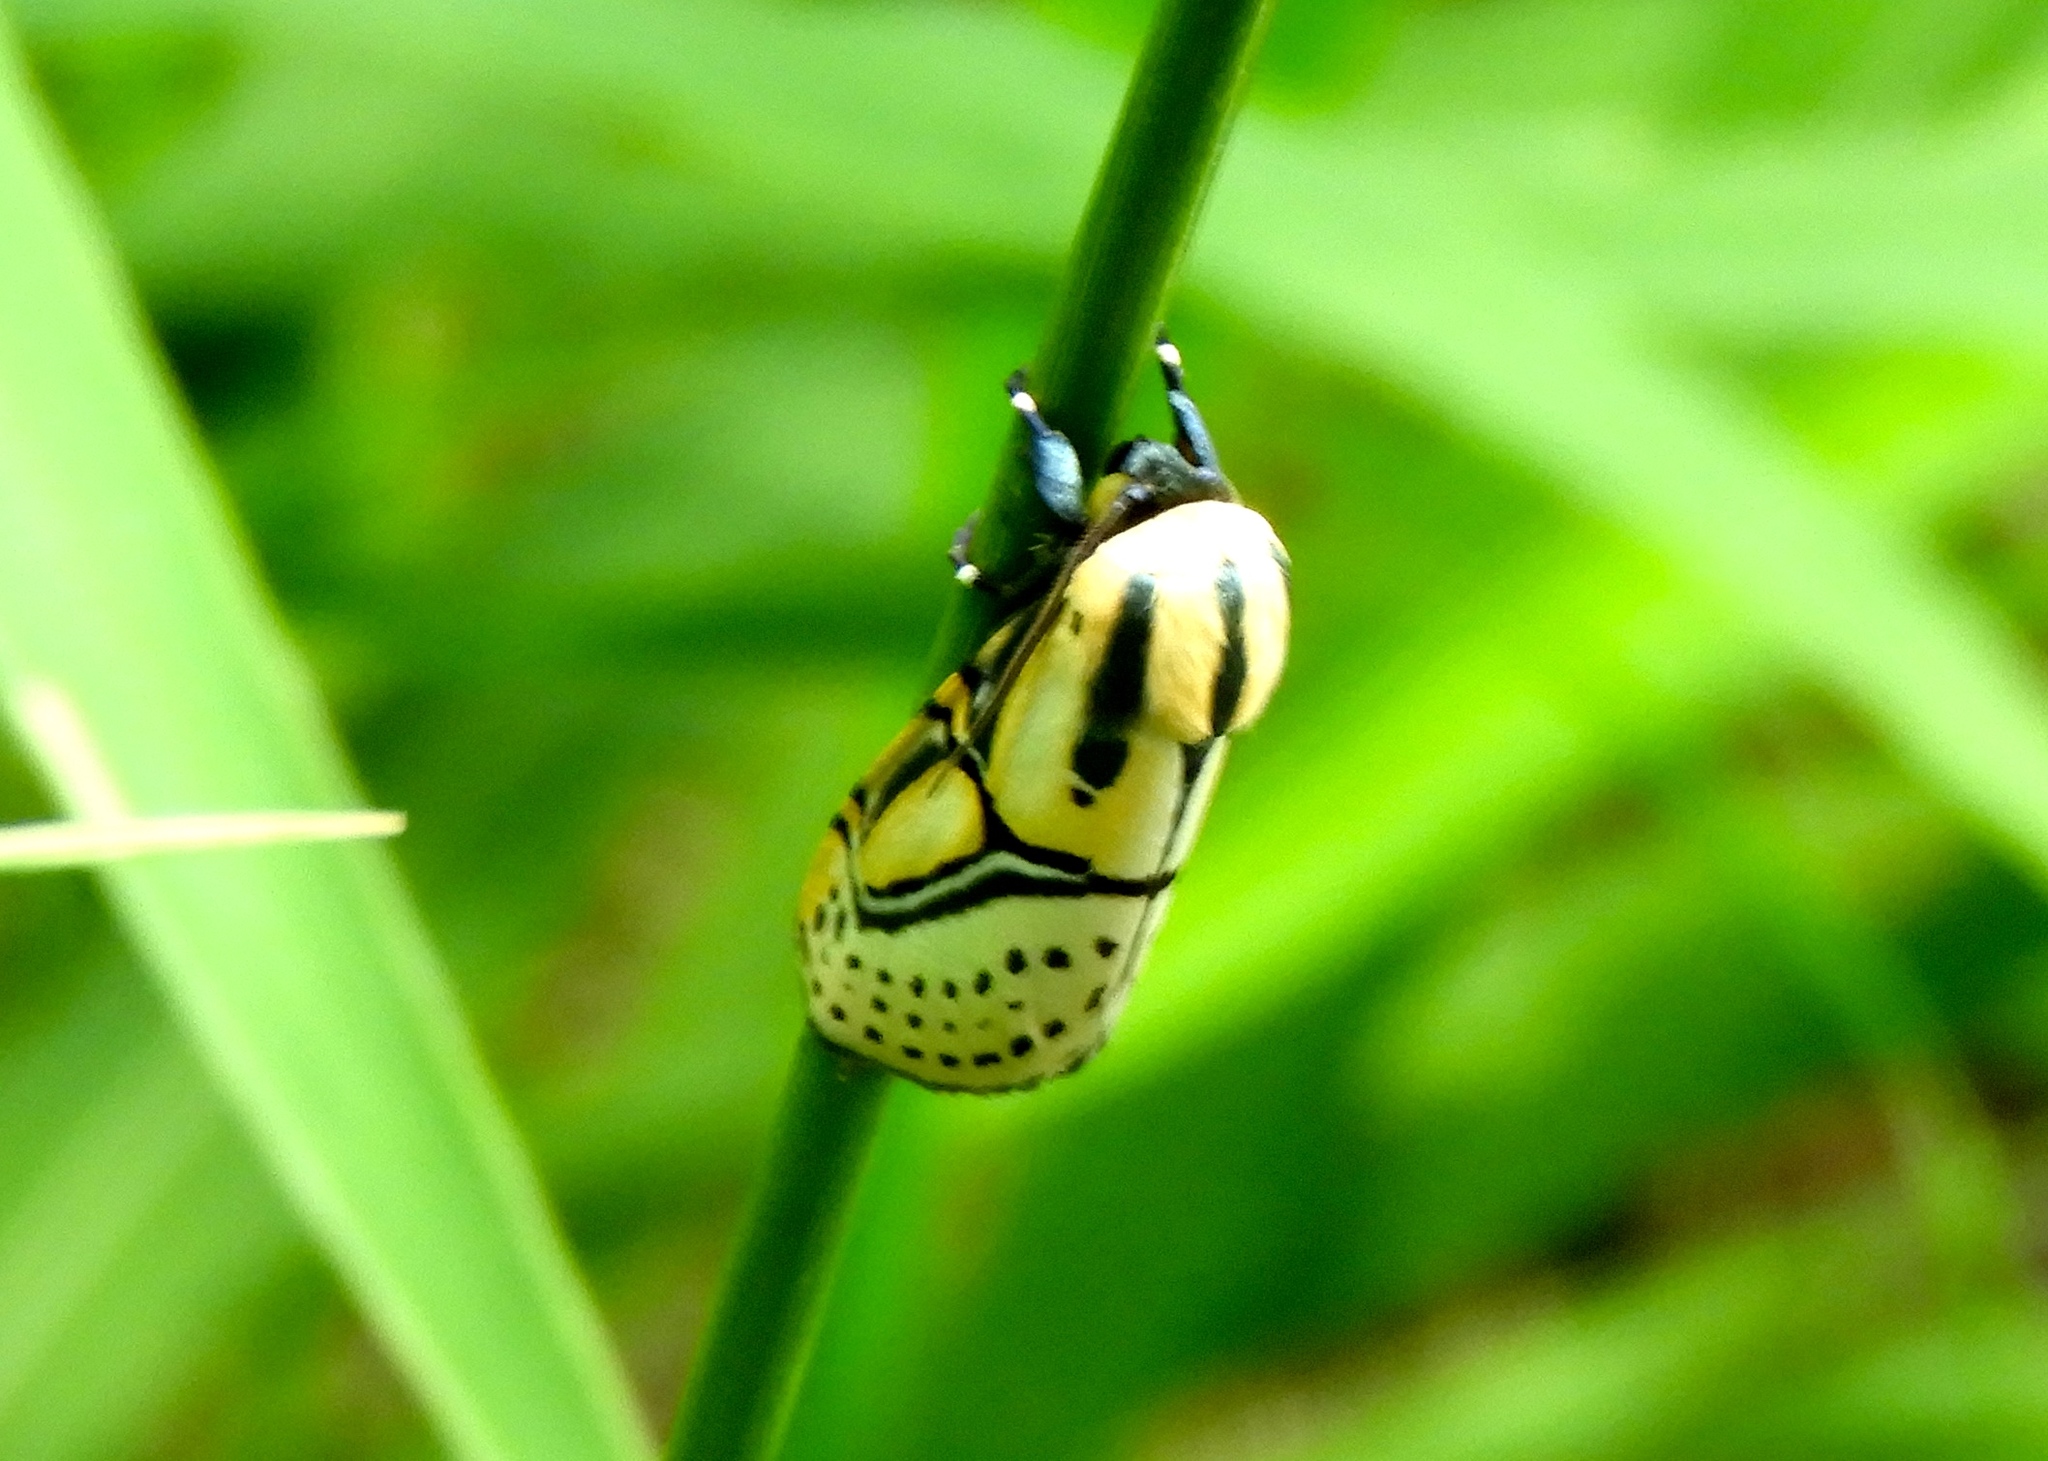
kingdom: Animalia
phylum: Arthropoda
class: Insecta
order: Lepidoptera
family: Erebidae
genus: Diphthera
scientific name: Diphthera festiva
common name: Hieroglyphic moth
